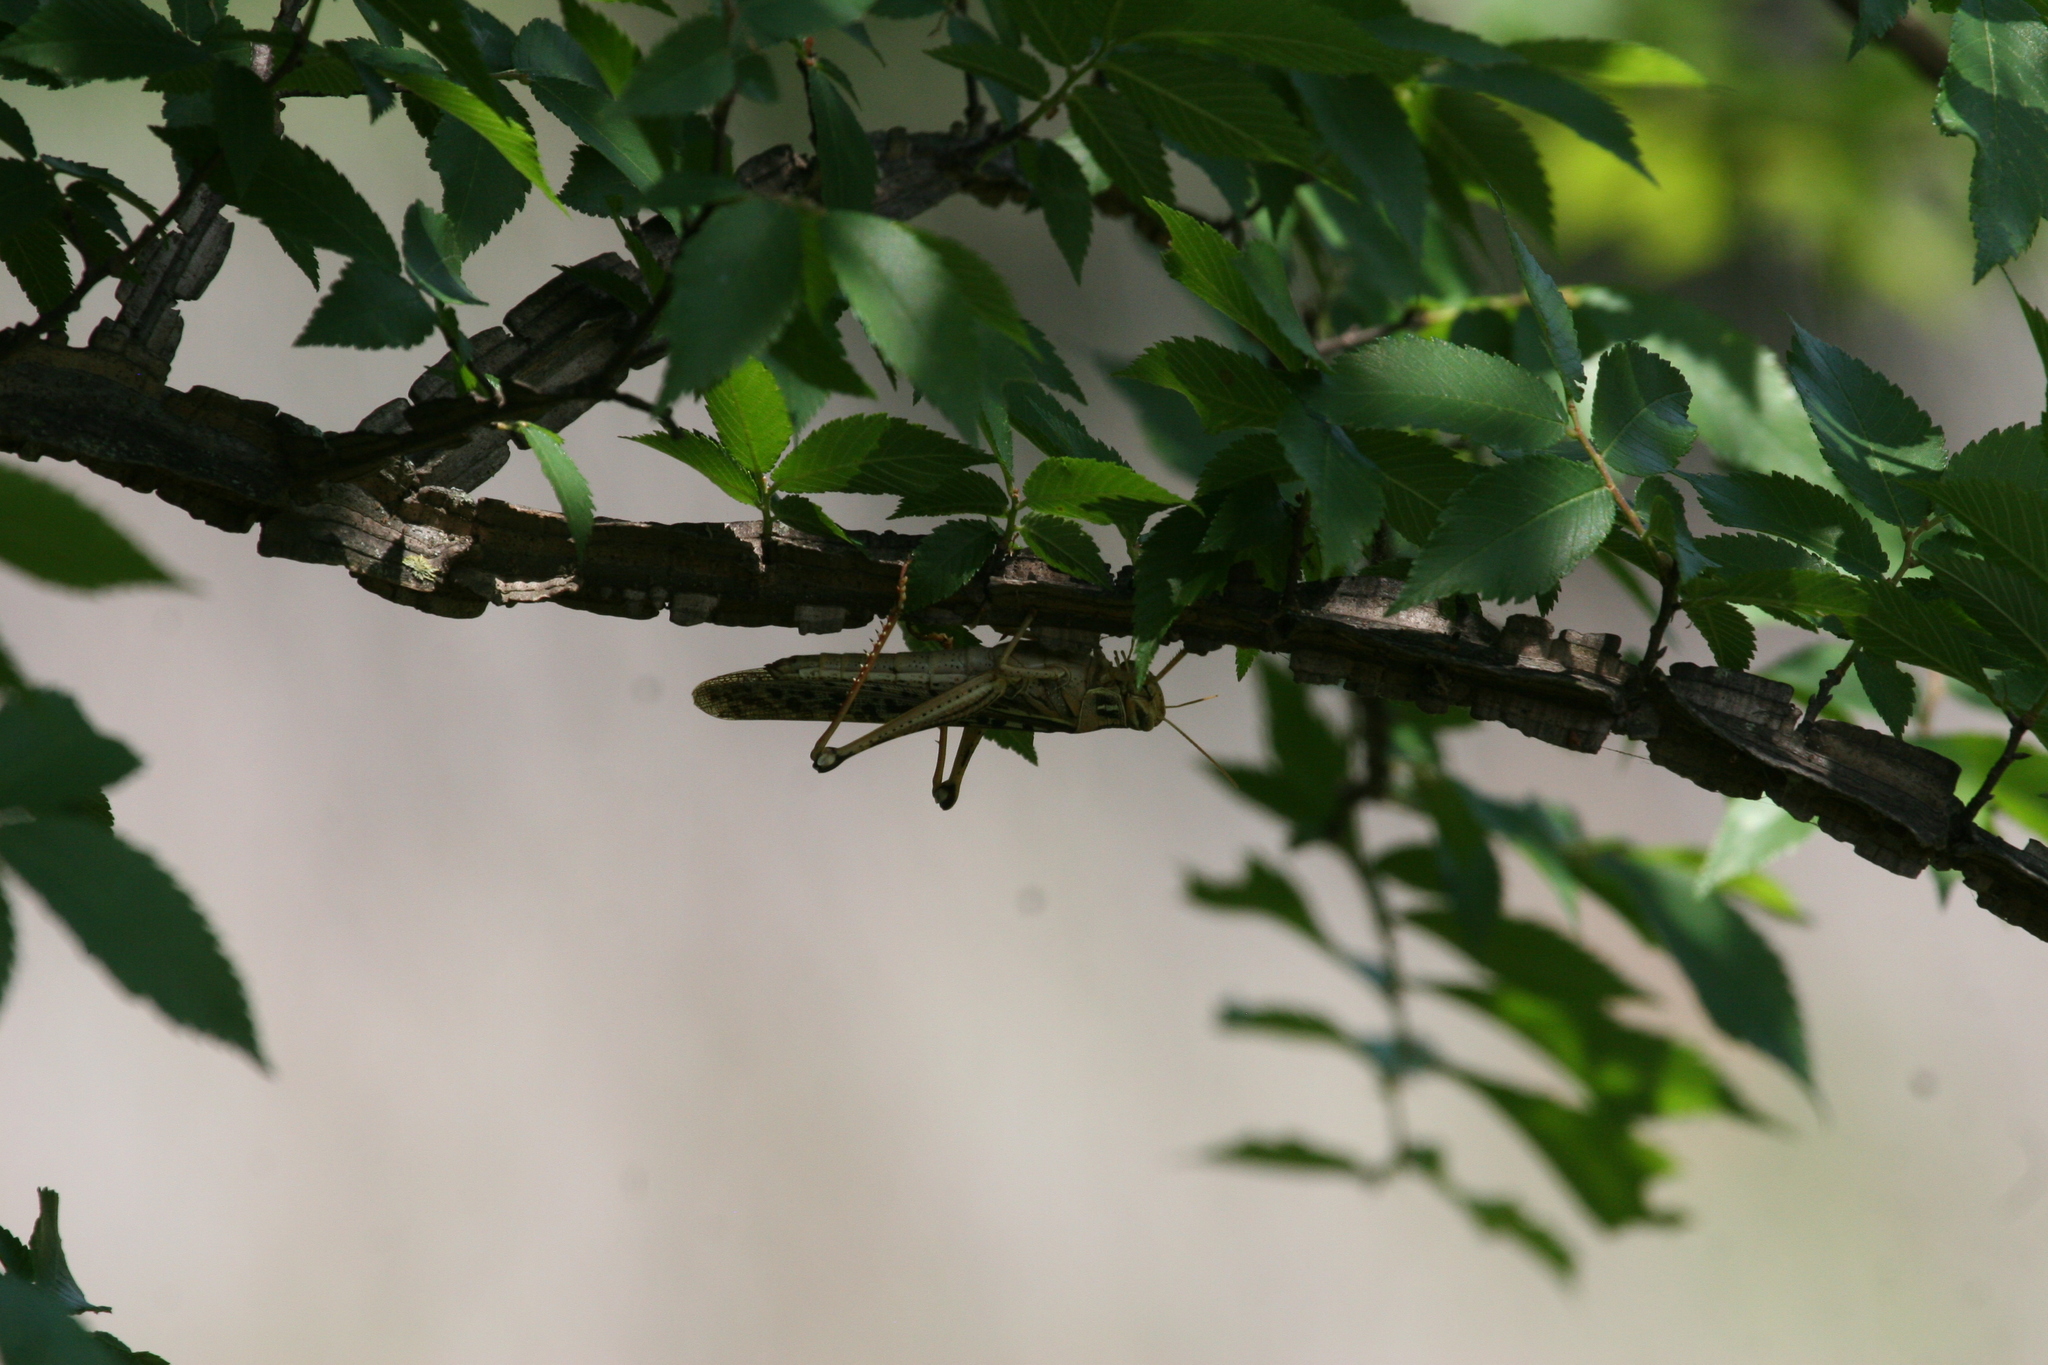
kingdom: Animalia
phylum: Arthropoda
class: Insecta
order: Orthoptera
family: Acrididae
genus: Schistocerca
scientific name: Schistocerca americana
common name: American bird locust
